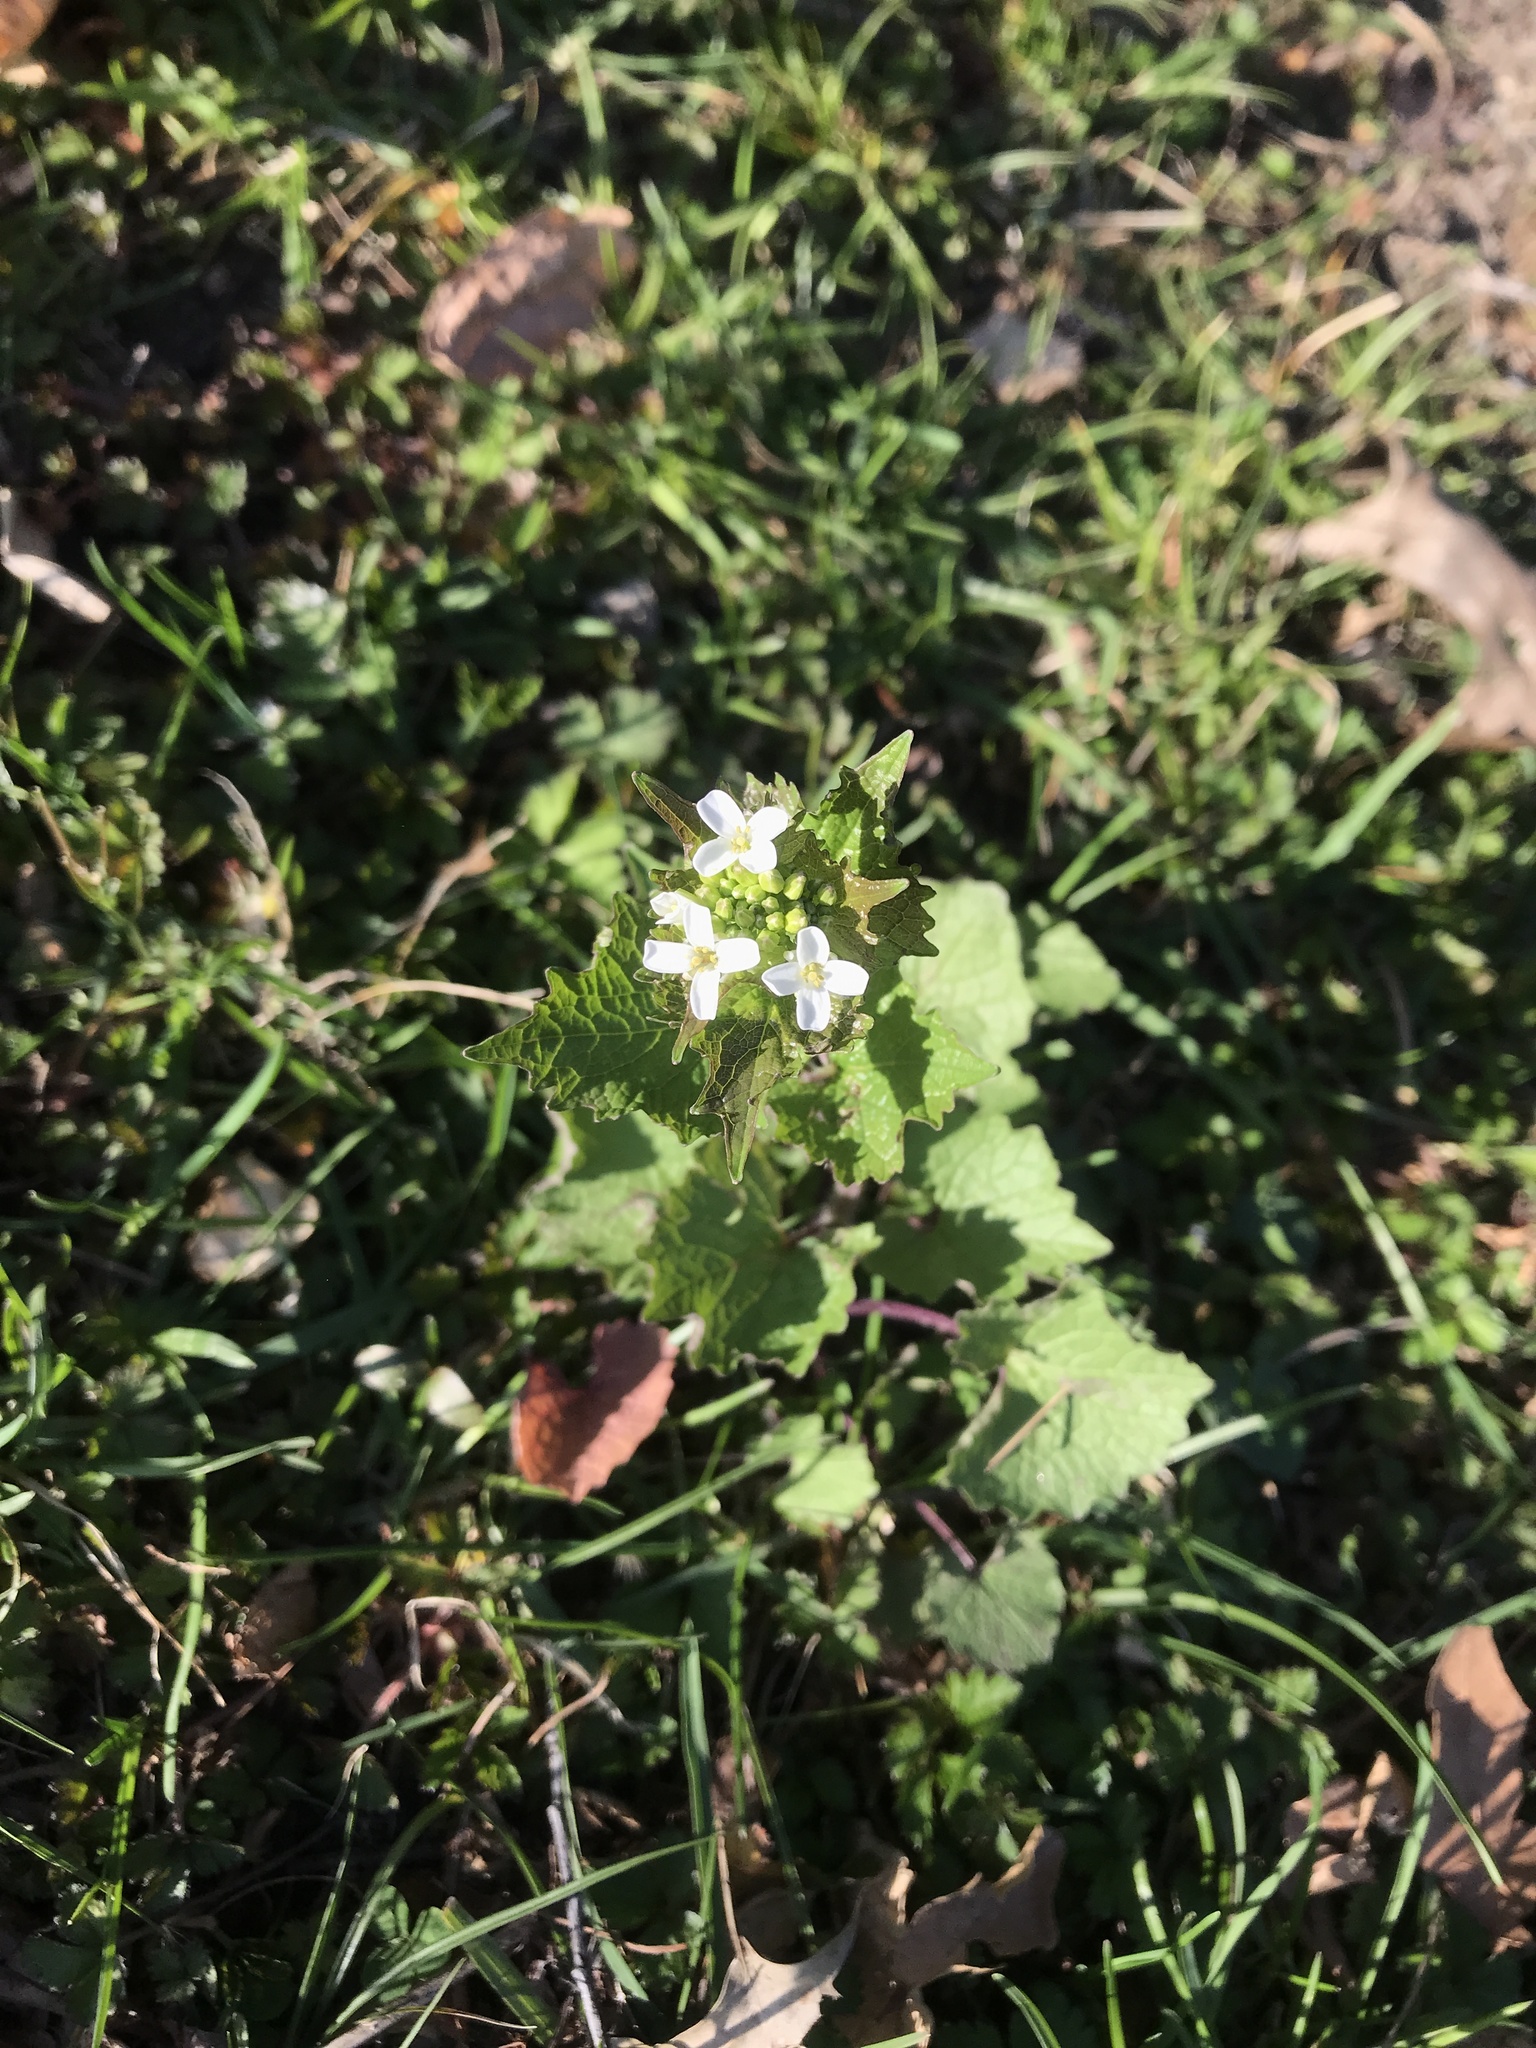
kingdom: Plantae
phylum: Tracheophyta
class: Magnoliopsida
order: Brassicales
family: Brassicaceae
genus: Alliaria
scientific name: Alliaria petiolata
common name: Garlic mustard
